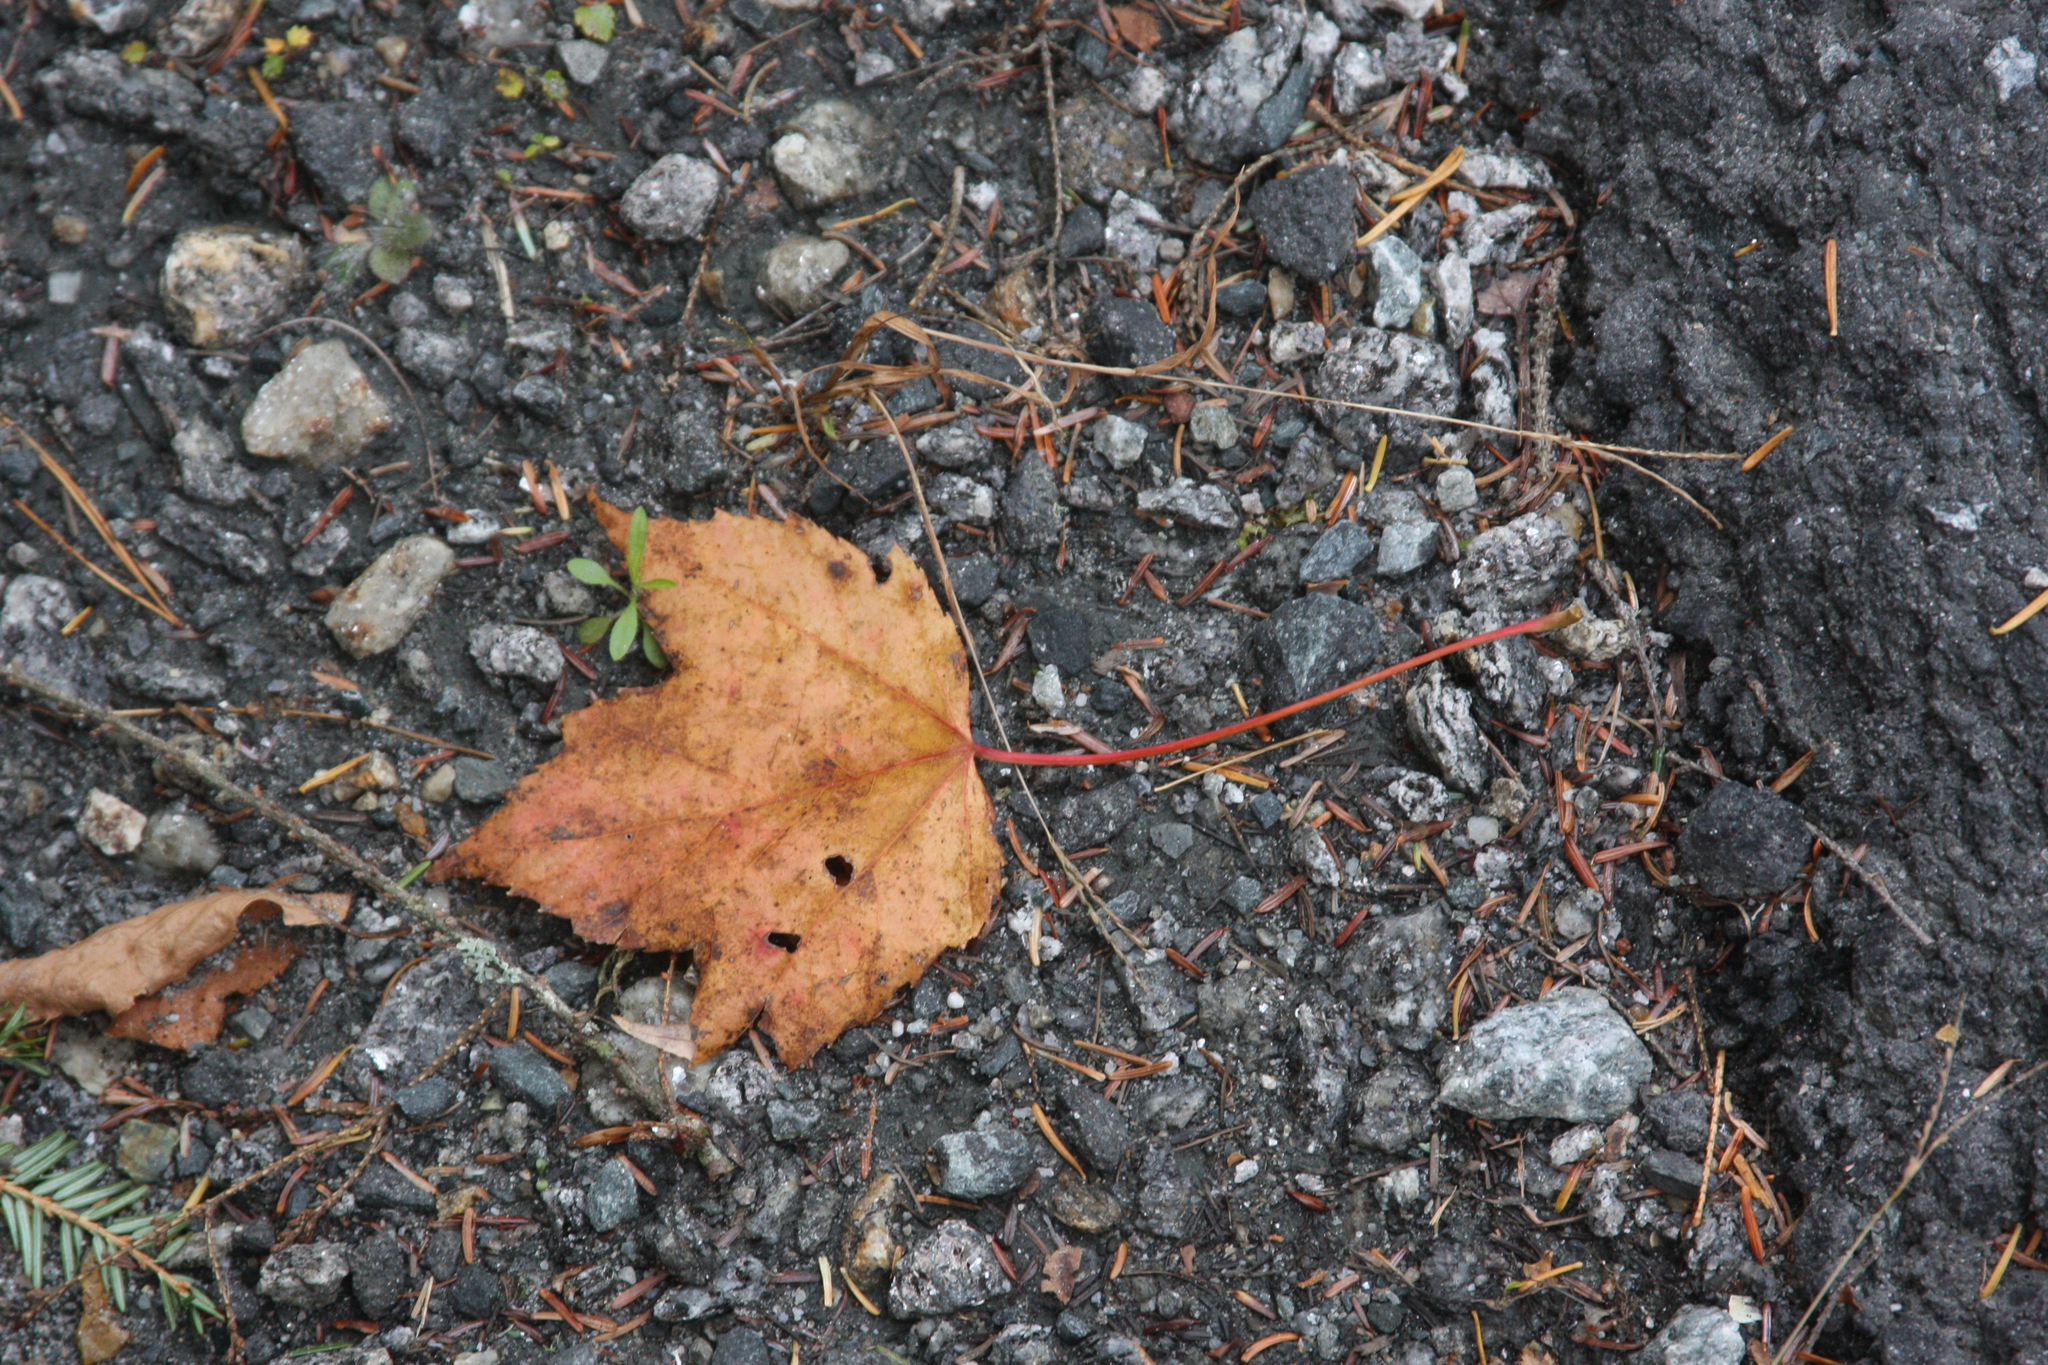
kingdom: Plantae
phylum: Tracheophyta
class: Magnoliopsida
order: Sapindales
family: Sapindaceae
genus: Acer
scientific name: Acer rubrum
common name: Red maple
